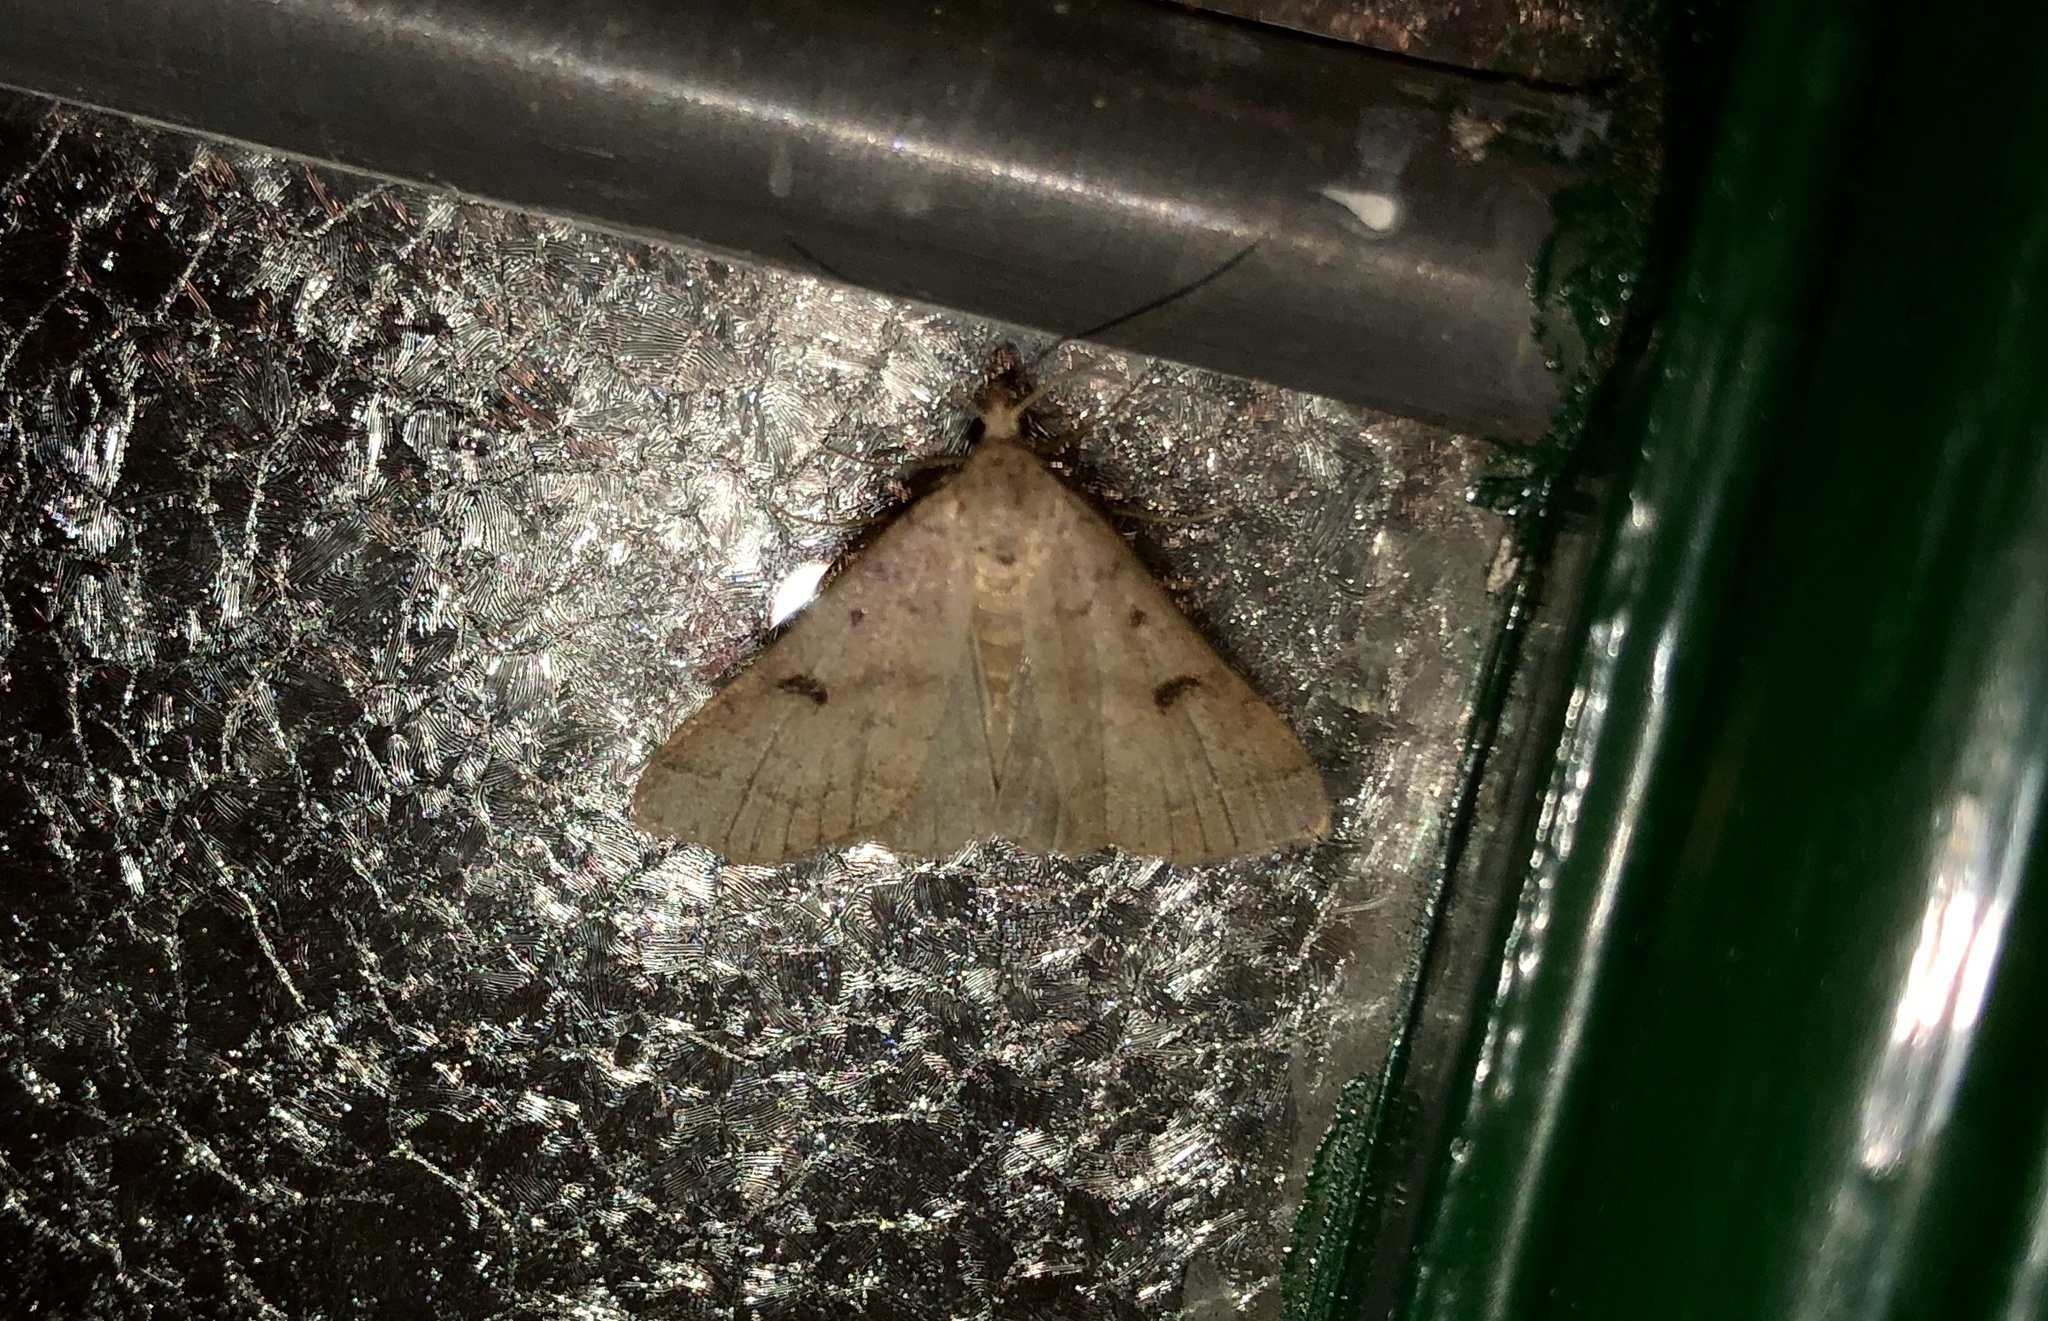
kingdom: Animalia
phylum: Arthropoda
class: Insecta
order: Lepidoptera
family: Erebidae
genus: Bleptina
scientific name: Bleptina caradrinalis
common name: Bent-winged owlet
